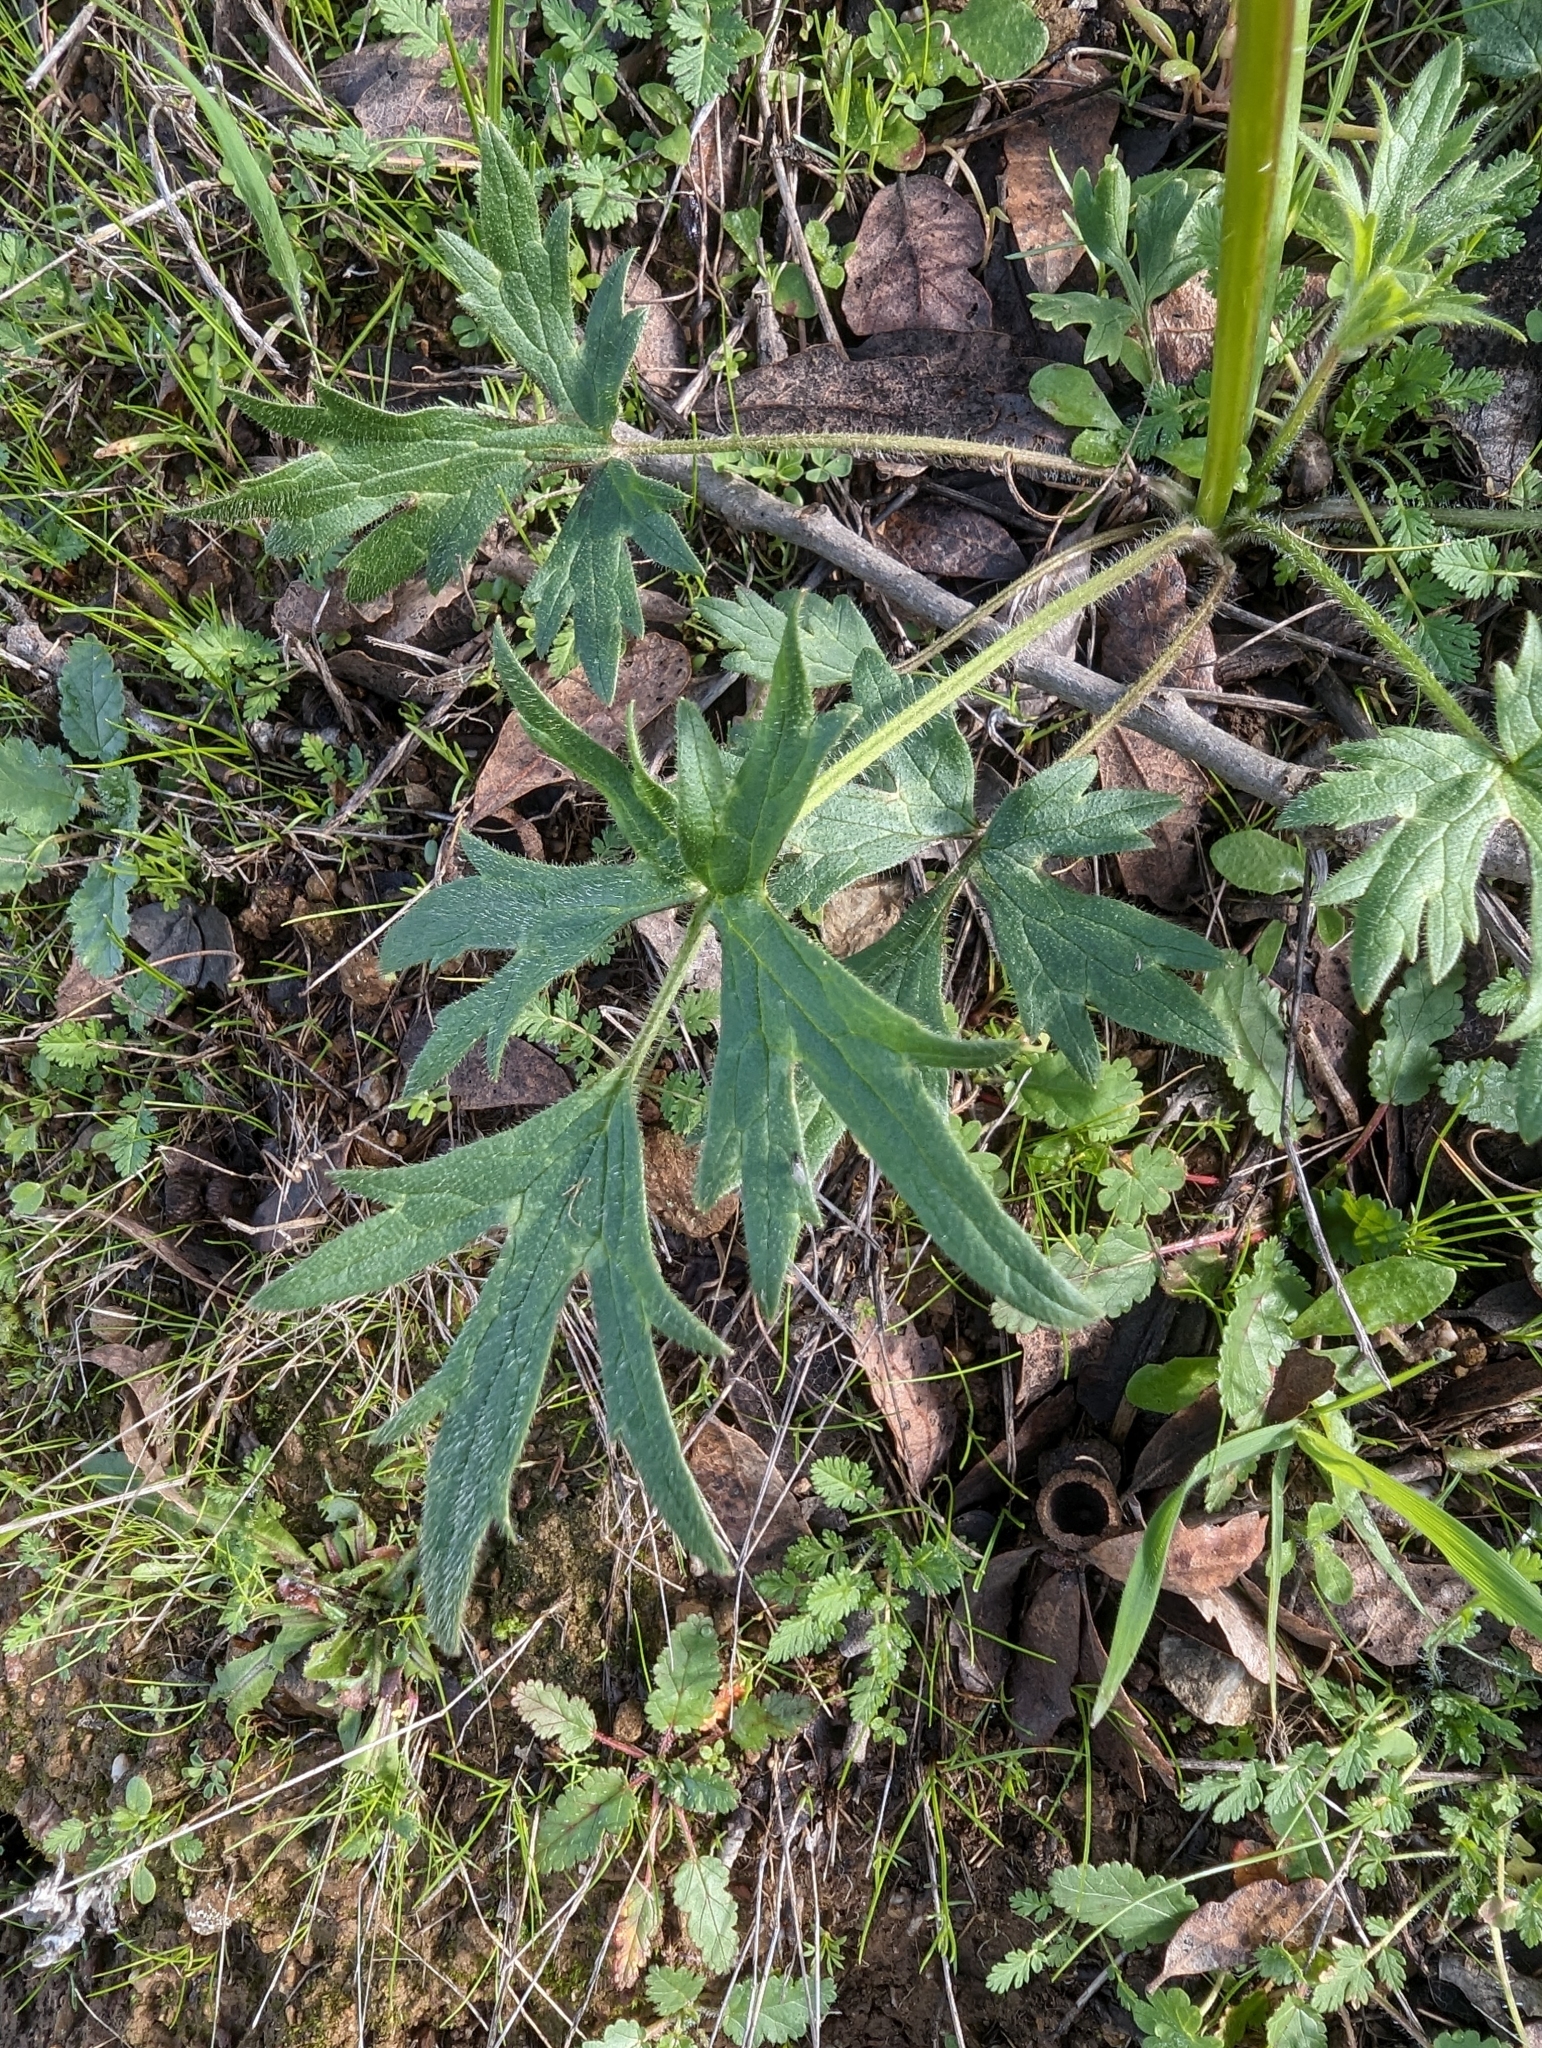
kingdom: Plantae
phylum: Tracheophyta
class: Magnoliopsida
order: Ranunculales
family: Ranunculaceae
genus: Ranunculus
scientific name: Ranunculus californicus
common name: California buttercup
